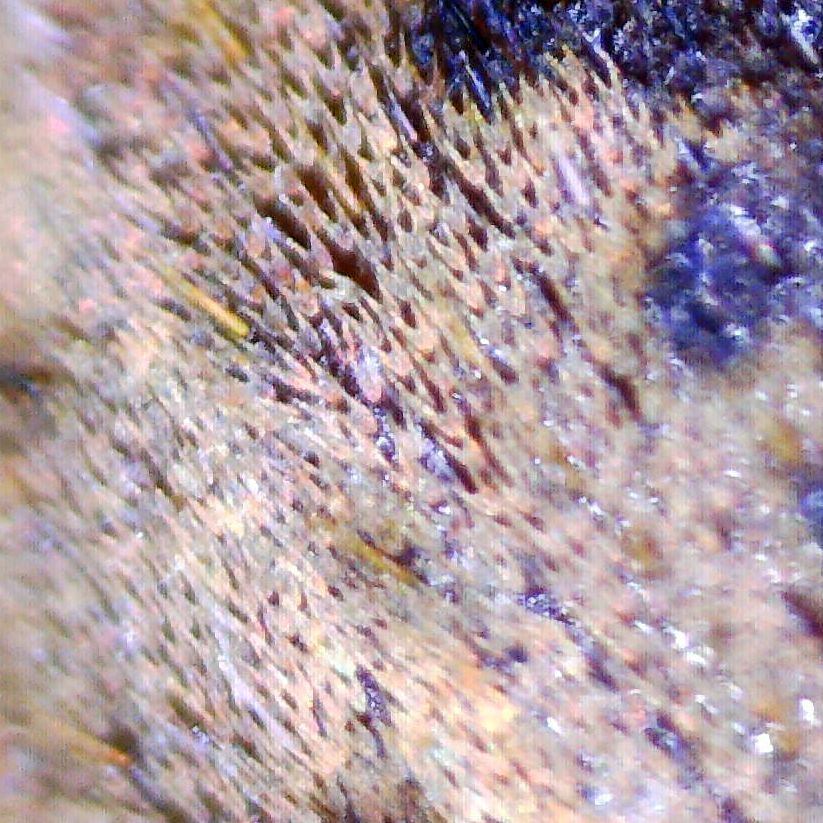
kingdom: Animalia
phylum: Arthropoda
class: Insecta
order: Coleoptera
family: Curculionidae
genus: Hypera
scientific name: Hypera plantaginis
